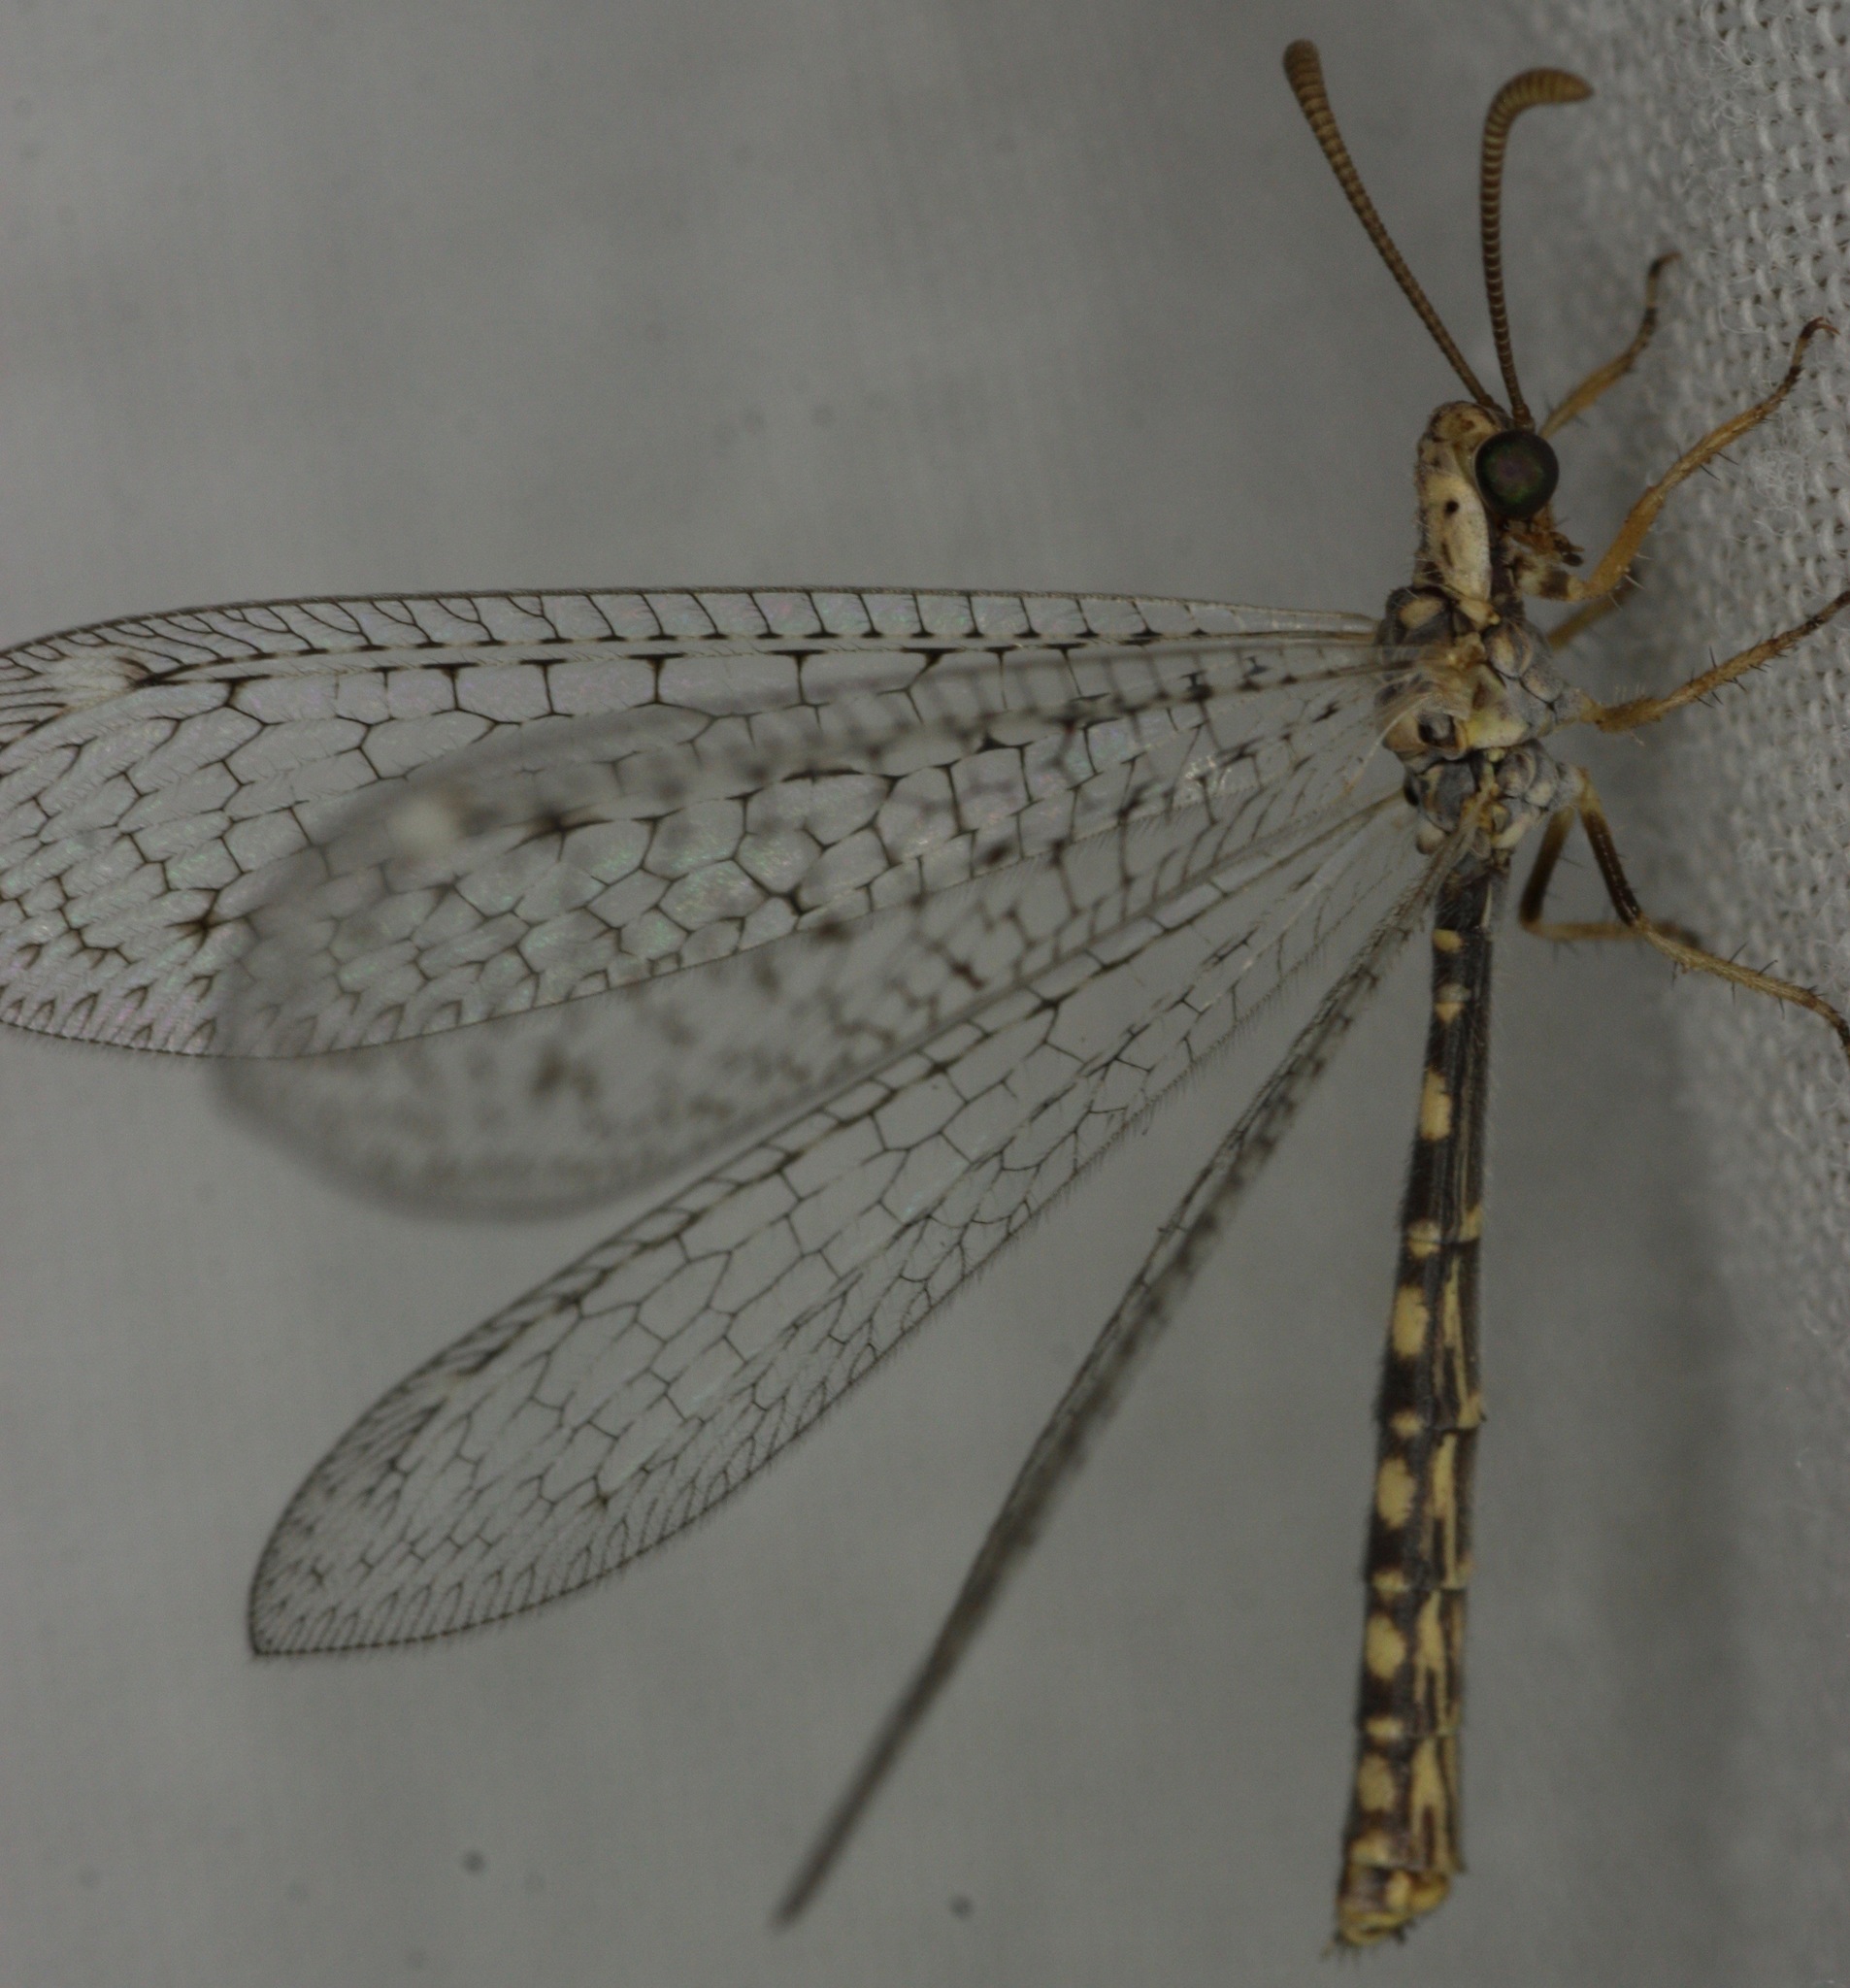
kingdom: Animalia
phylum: Arthropoda
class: Insecta
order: Neuroptera
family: Myrmeleontidae
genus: Scotoleon
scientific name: Scotoleon expansus
